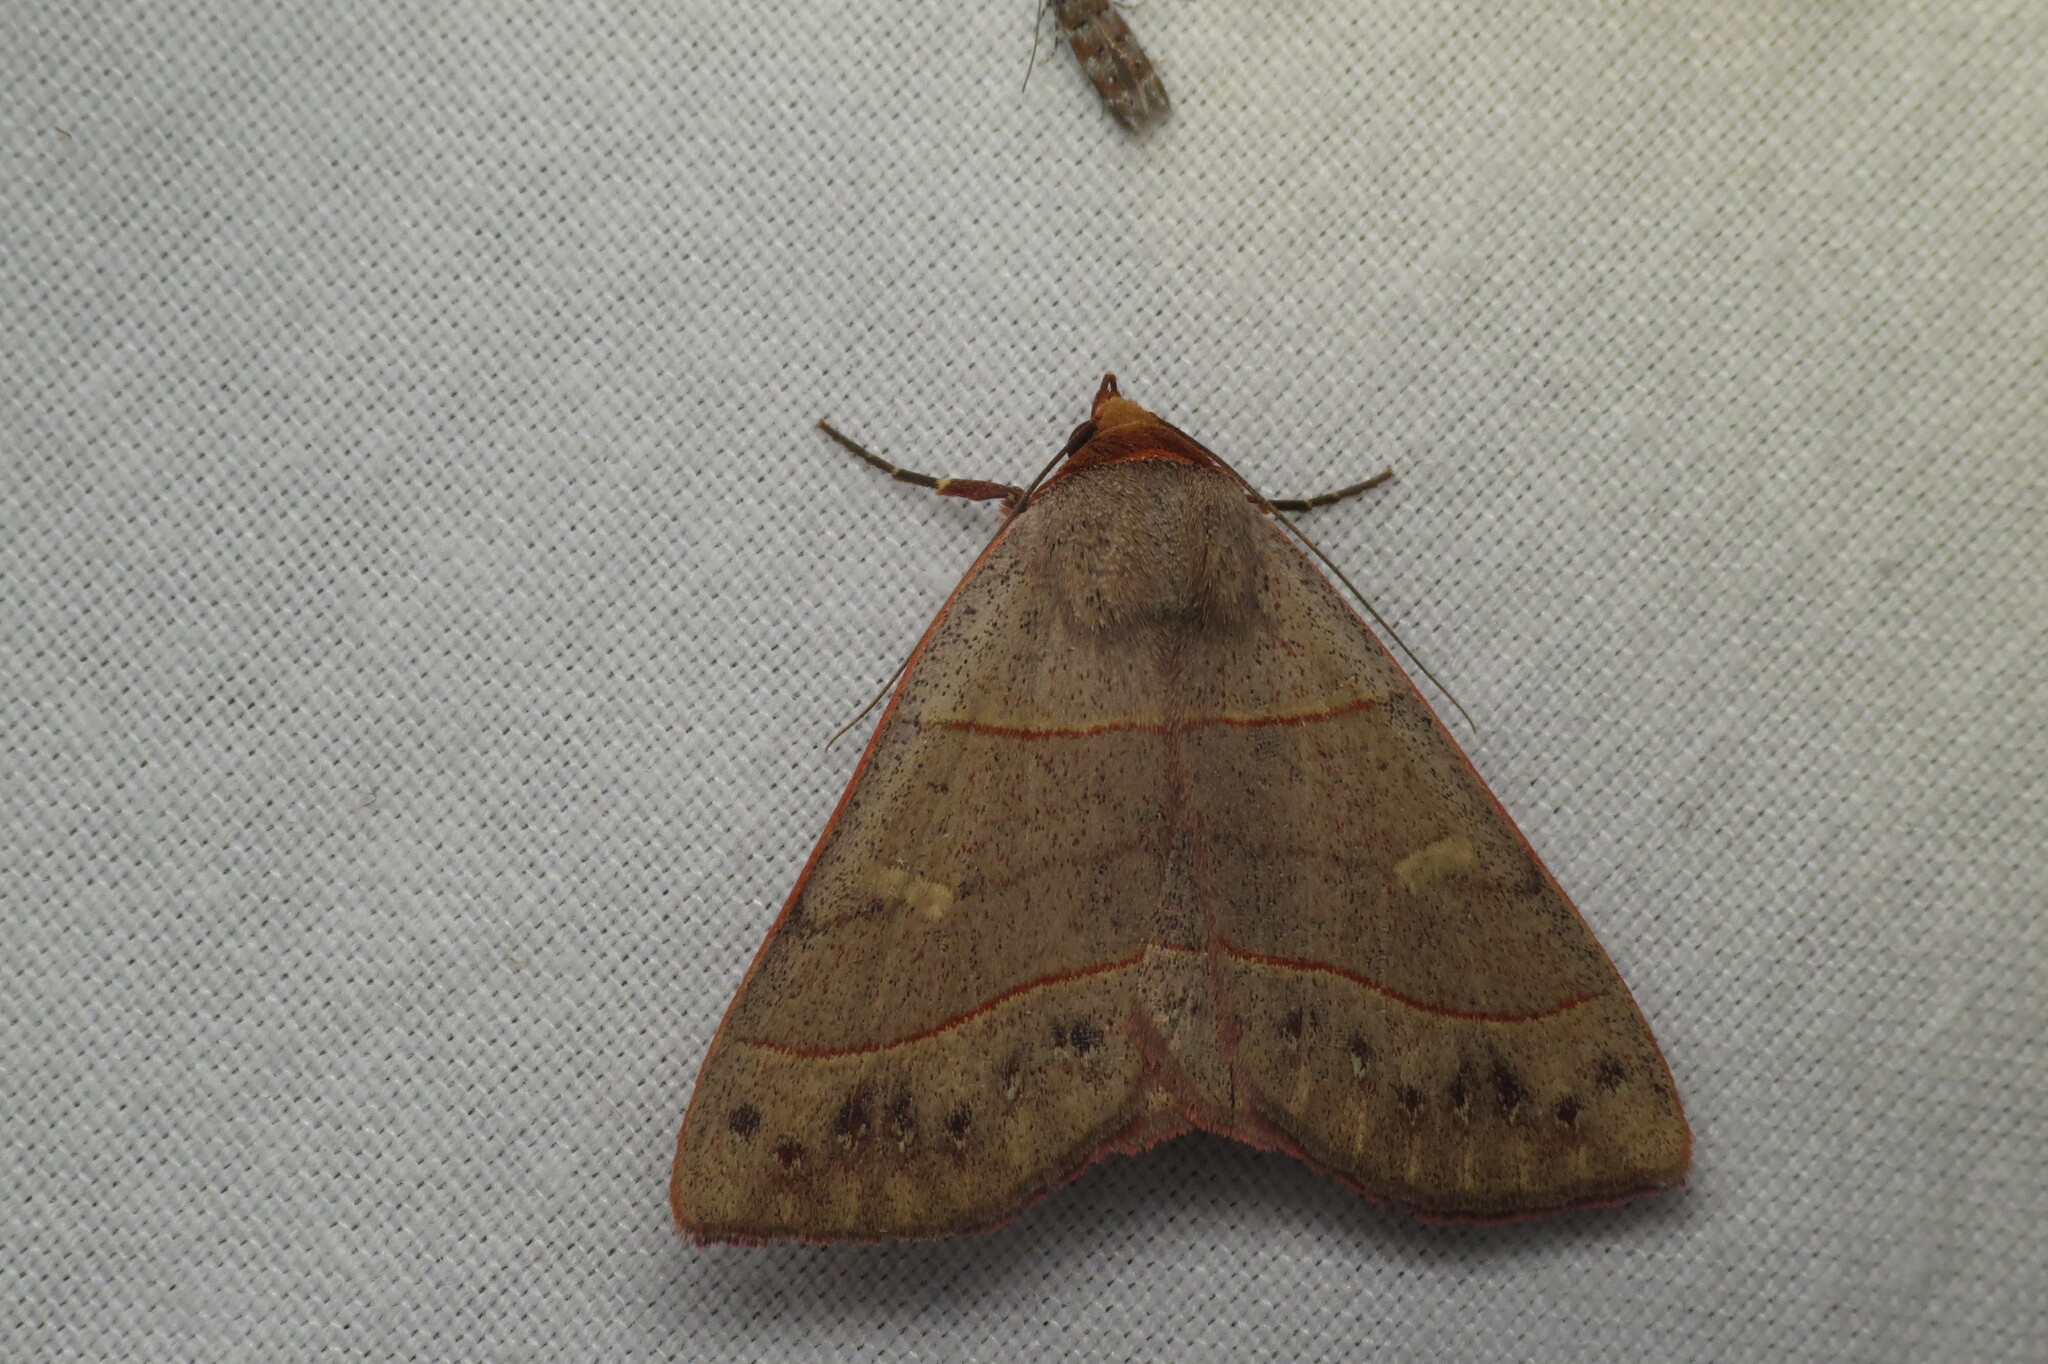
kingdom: Animalia
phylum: Arthropoda
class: Insecta
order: Lepidoptera
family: Erebidae
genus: Panopoda
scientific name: Panopoda rufimargo
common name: Red-lined panopoda moth
